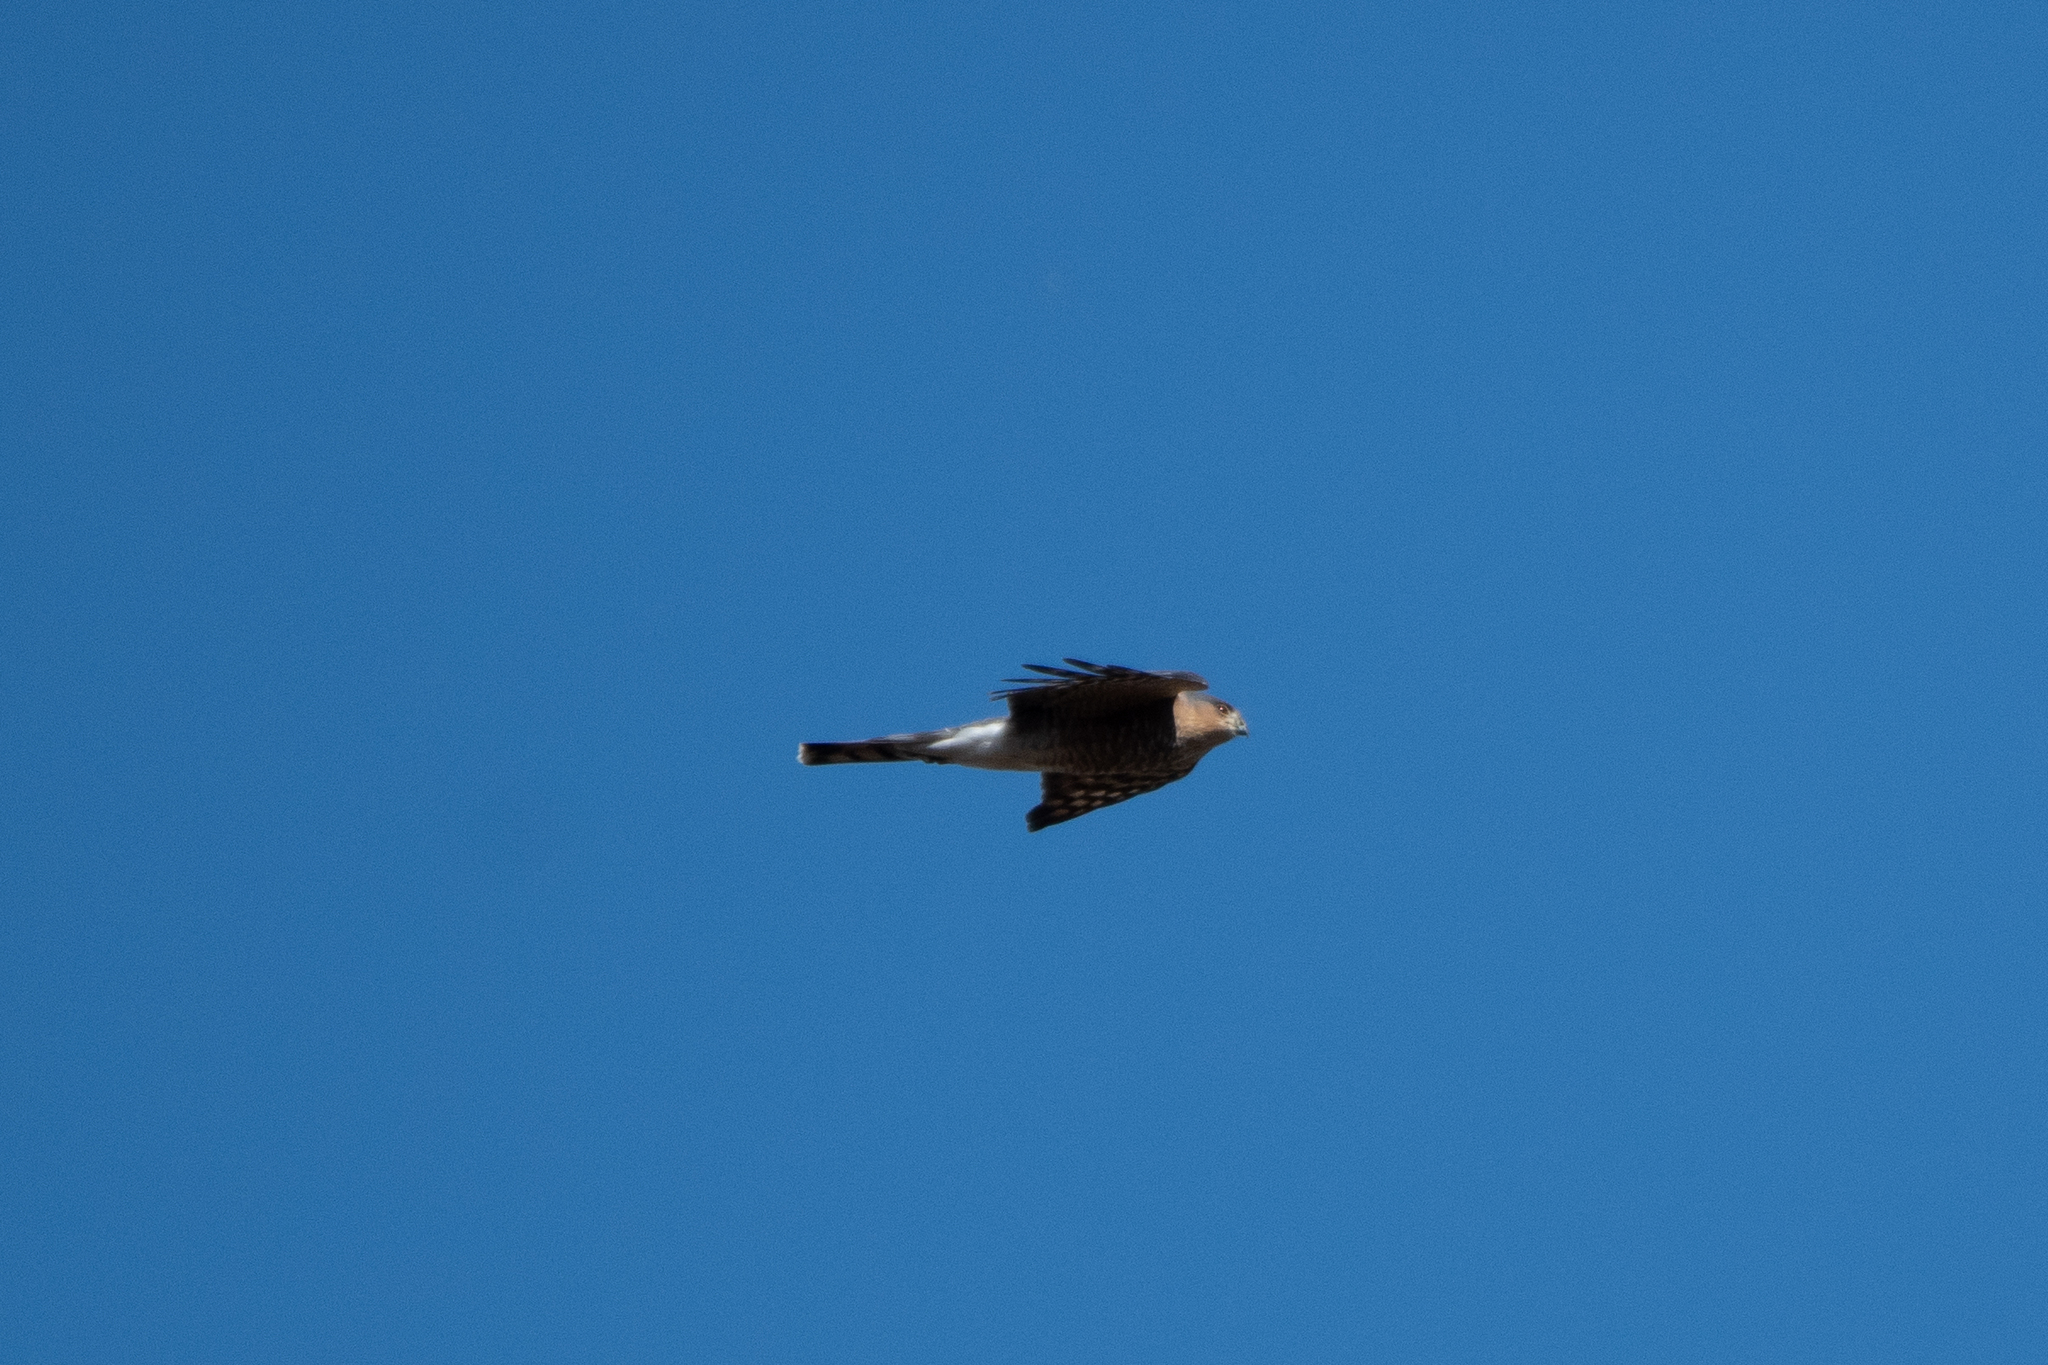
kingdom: Animalia
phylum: Chordata
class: Aves
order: Accipitriformes
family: Accipitridae
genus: Accipiter
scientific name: Accipiter striatus
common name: Sharp-shinned hawk
